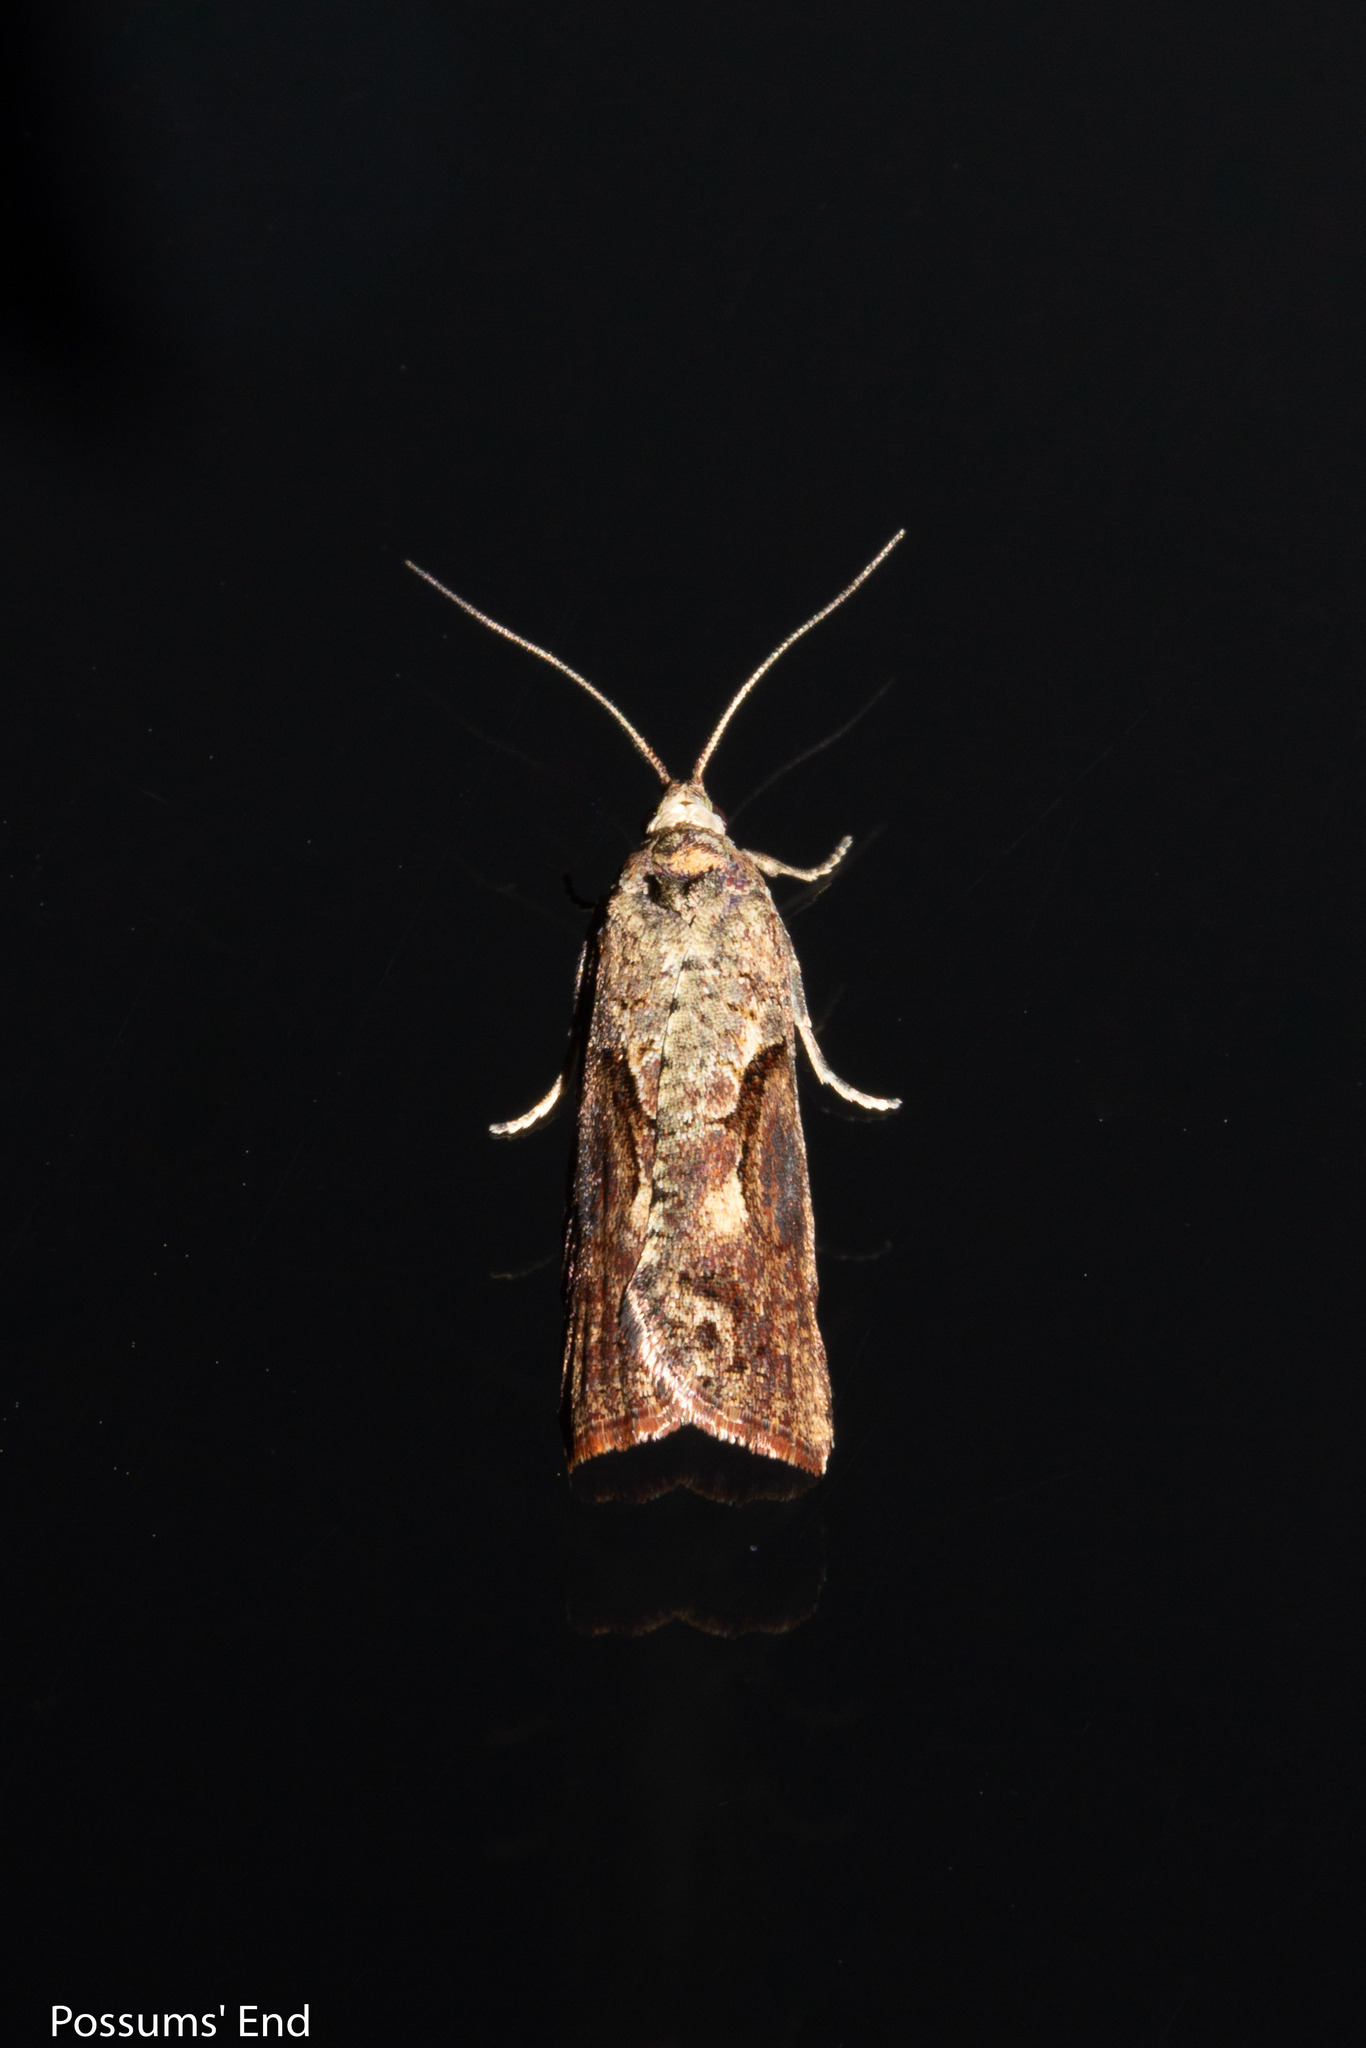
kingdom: Animalia
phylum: Arthropoda
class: Insecta
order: Lepidoptera
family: Tortricidae
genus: Harmologa
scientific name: Harmologa scoliastis
